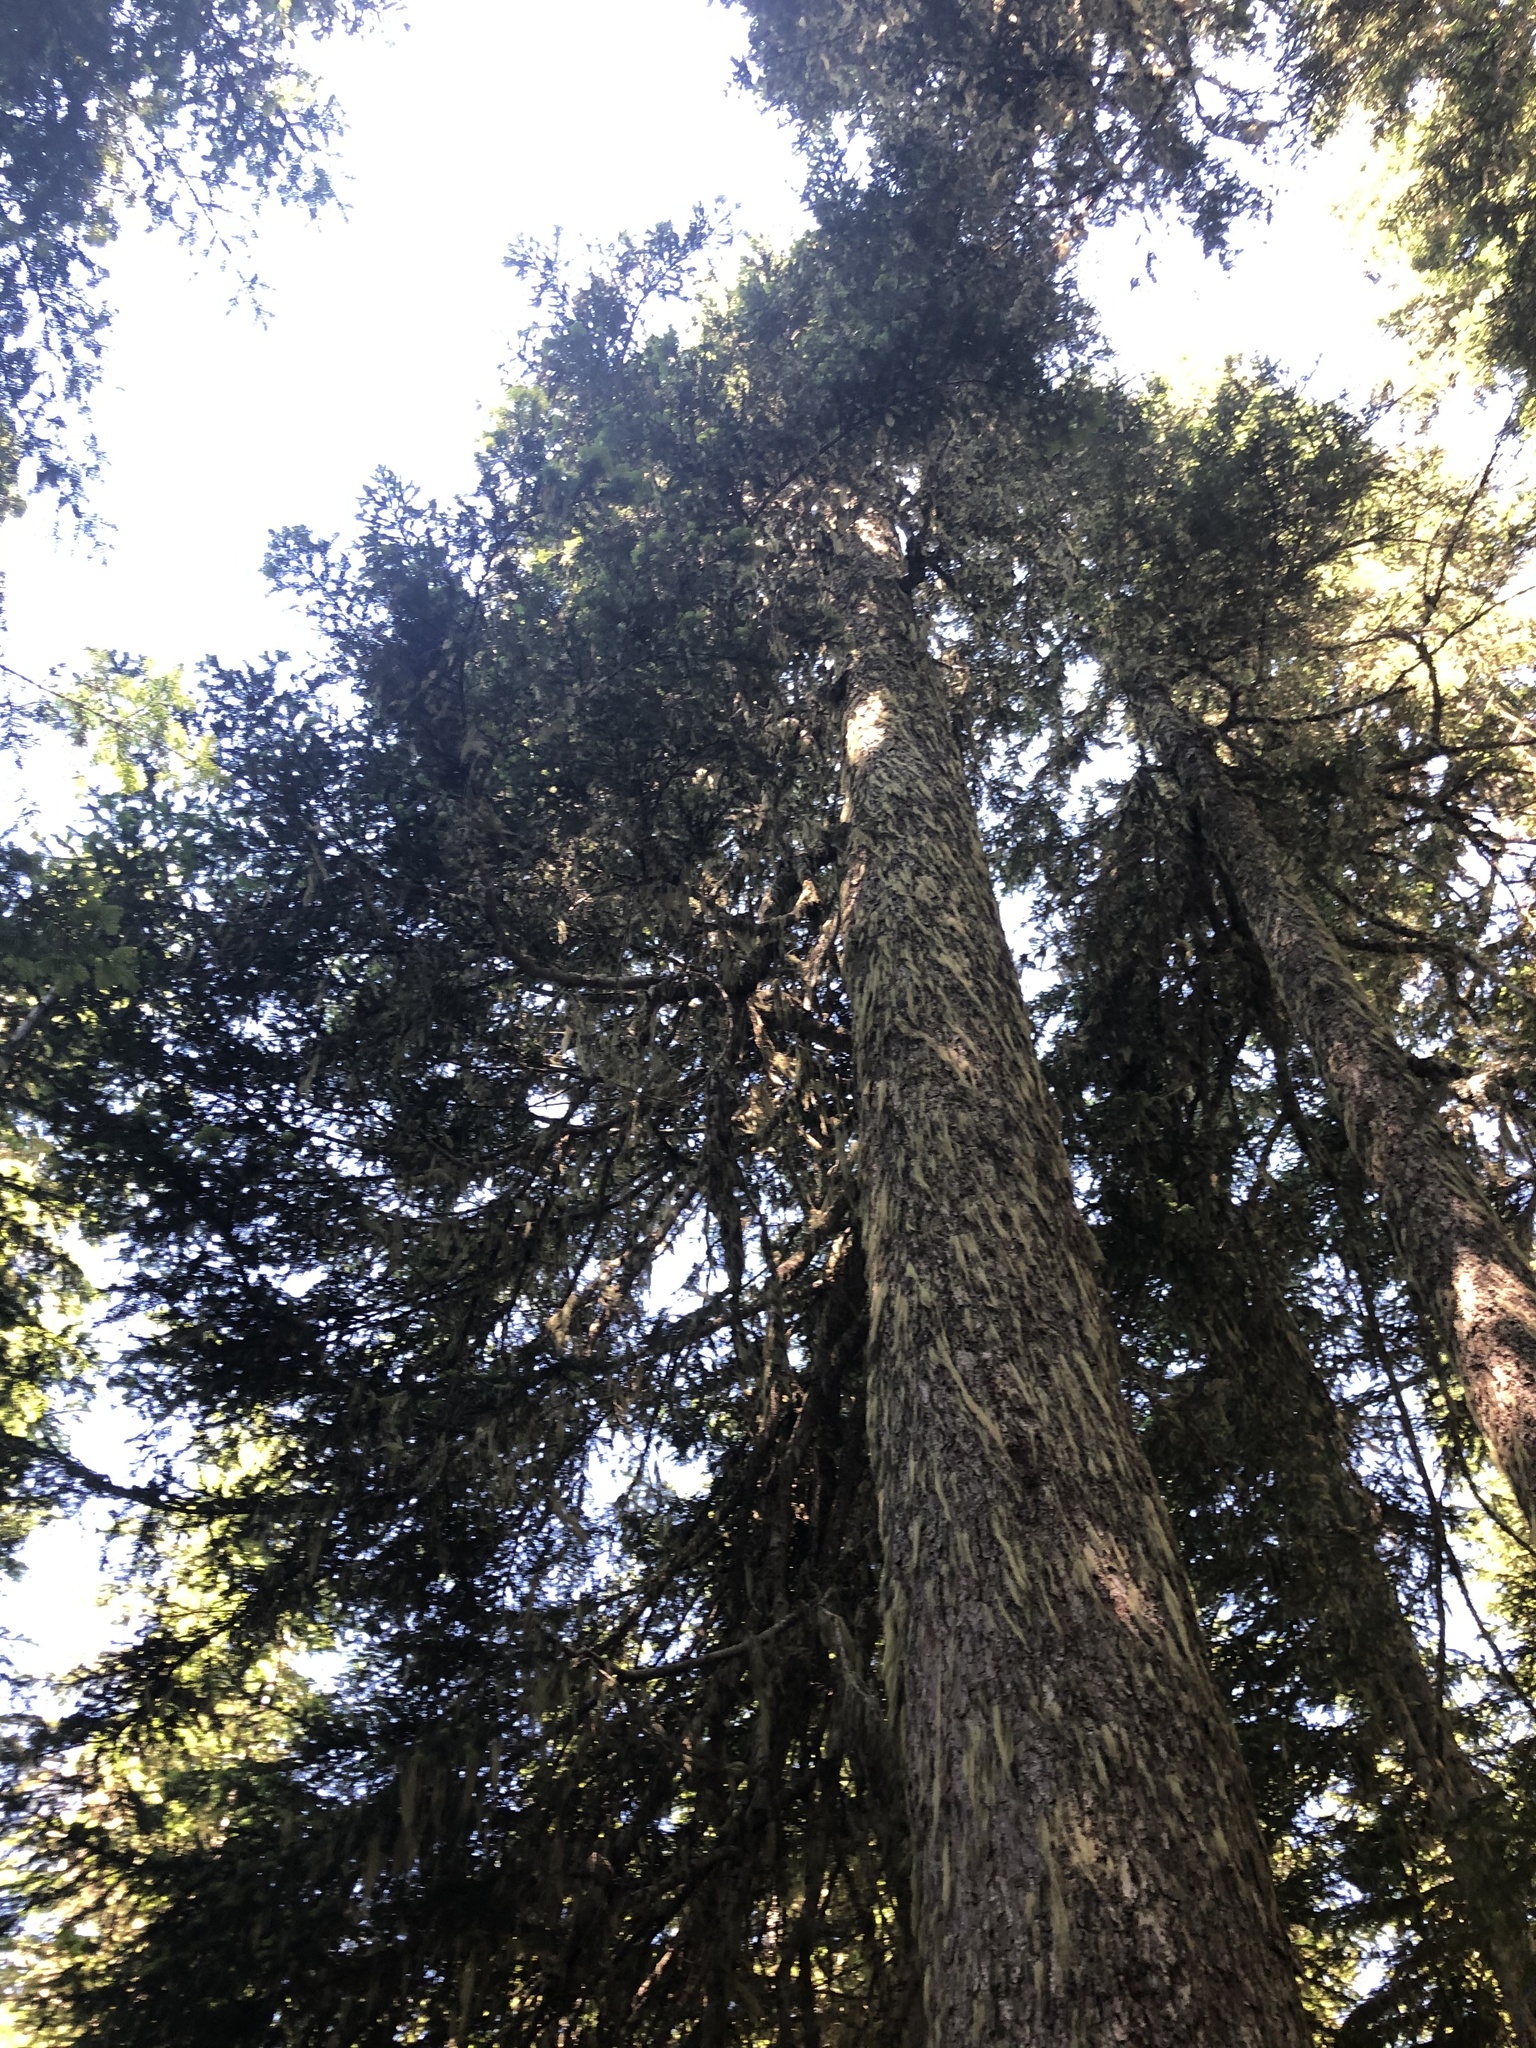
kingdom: Plantae
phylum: Tracheophyta
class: Pinopsida
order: Pinales
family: Pinaceae
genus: Abies
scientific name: Abies amabilis
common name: Pacific silver fir
